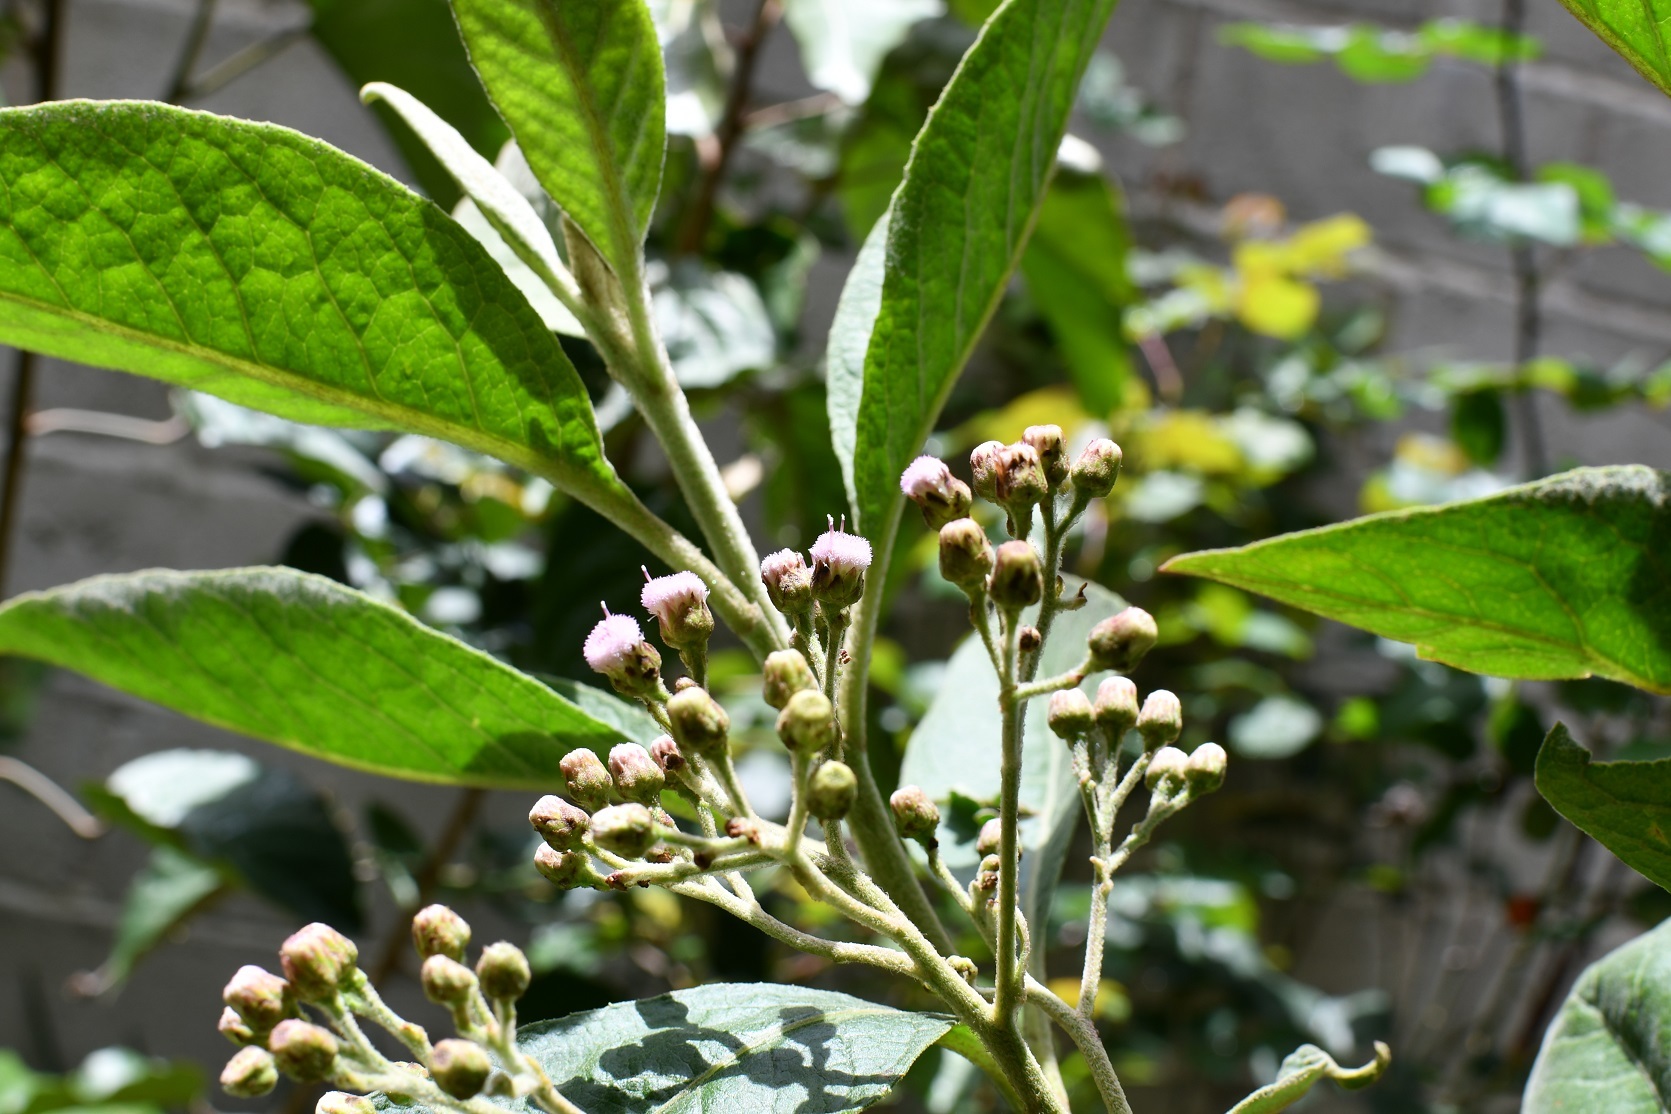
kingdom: Plantae
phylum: Tracheophyta
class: Magnoliopsida
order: Asterales
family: Asteraceae
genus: Pluchea
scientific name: Pluchea carolinensis
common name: Marsh fleabane
